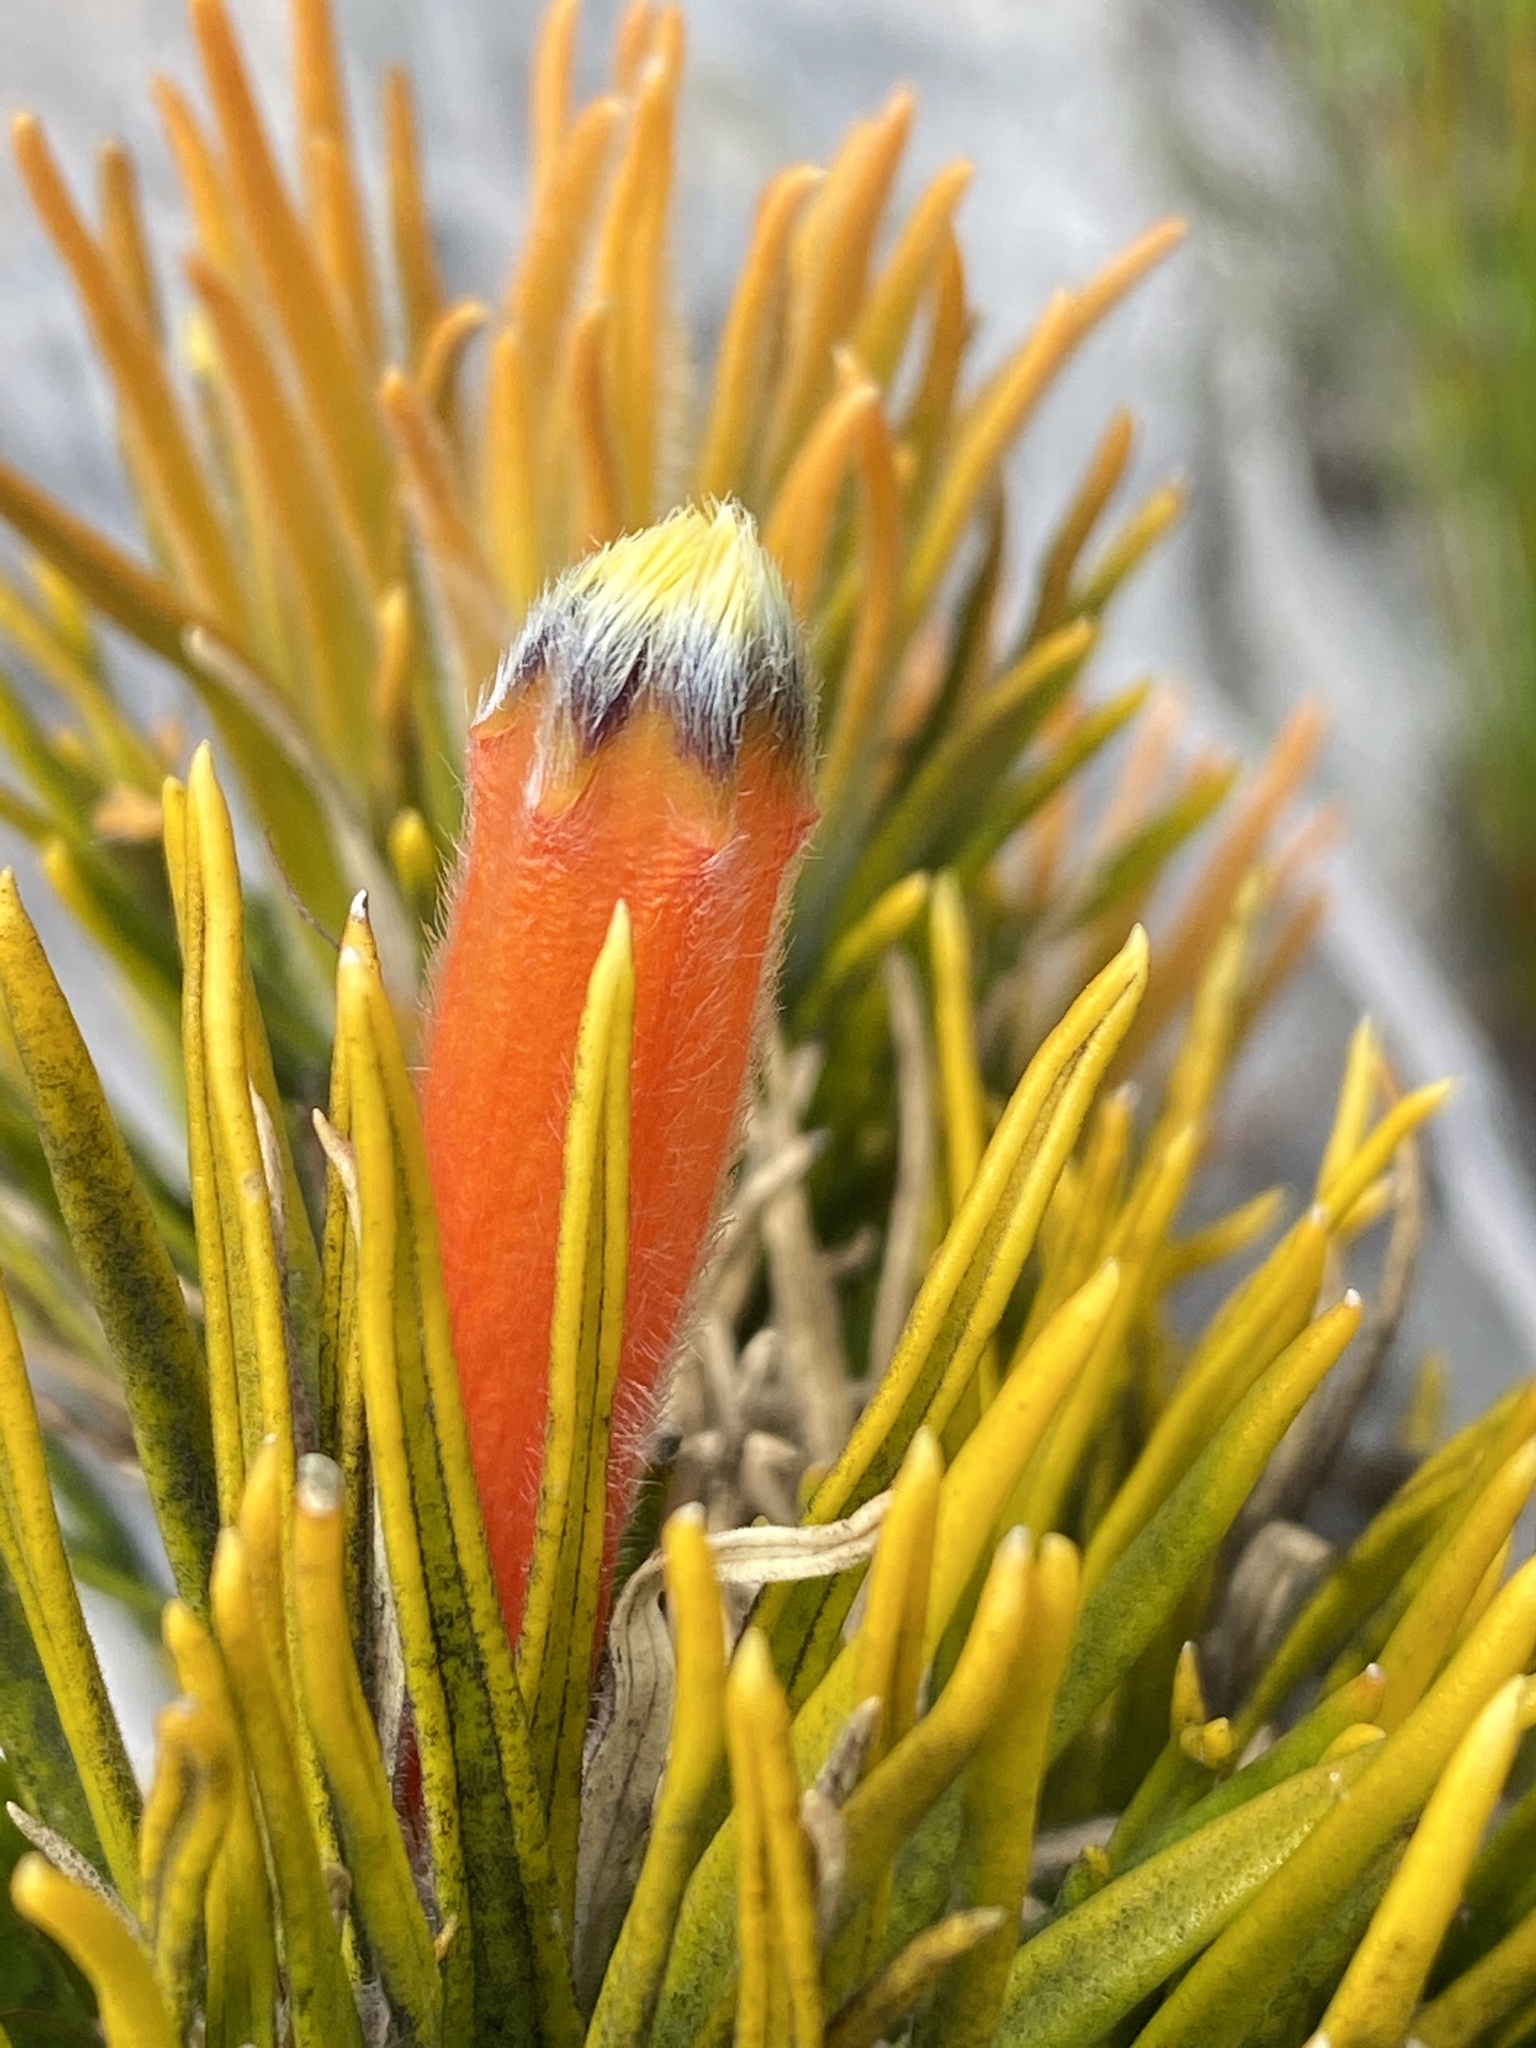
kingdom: Plantae
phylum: Tracheophyta
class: Magnoliopsida
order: Lamiales
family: Stilbaceae
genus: Retzia
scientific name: Retzia capensis
